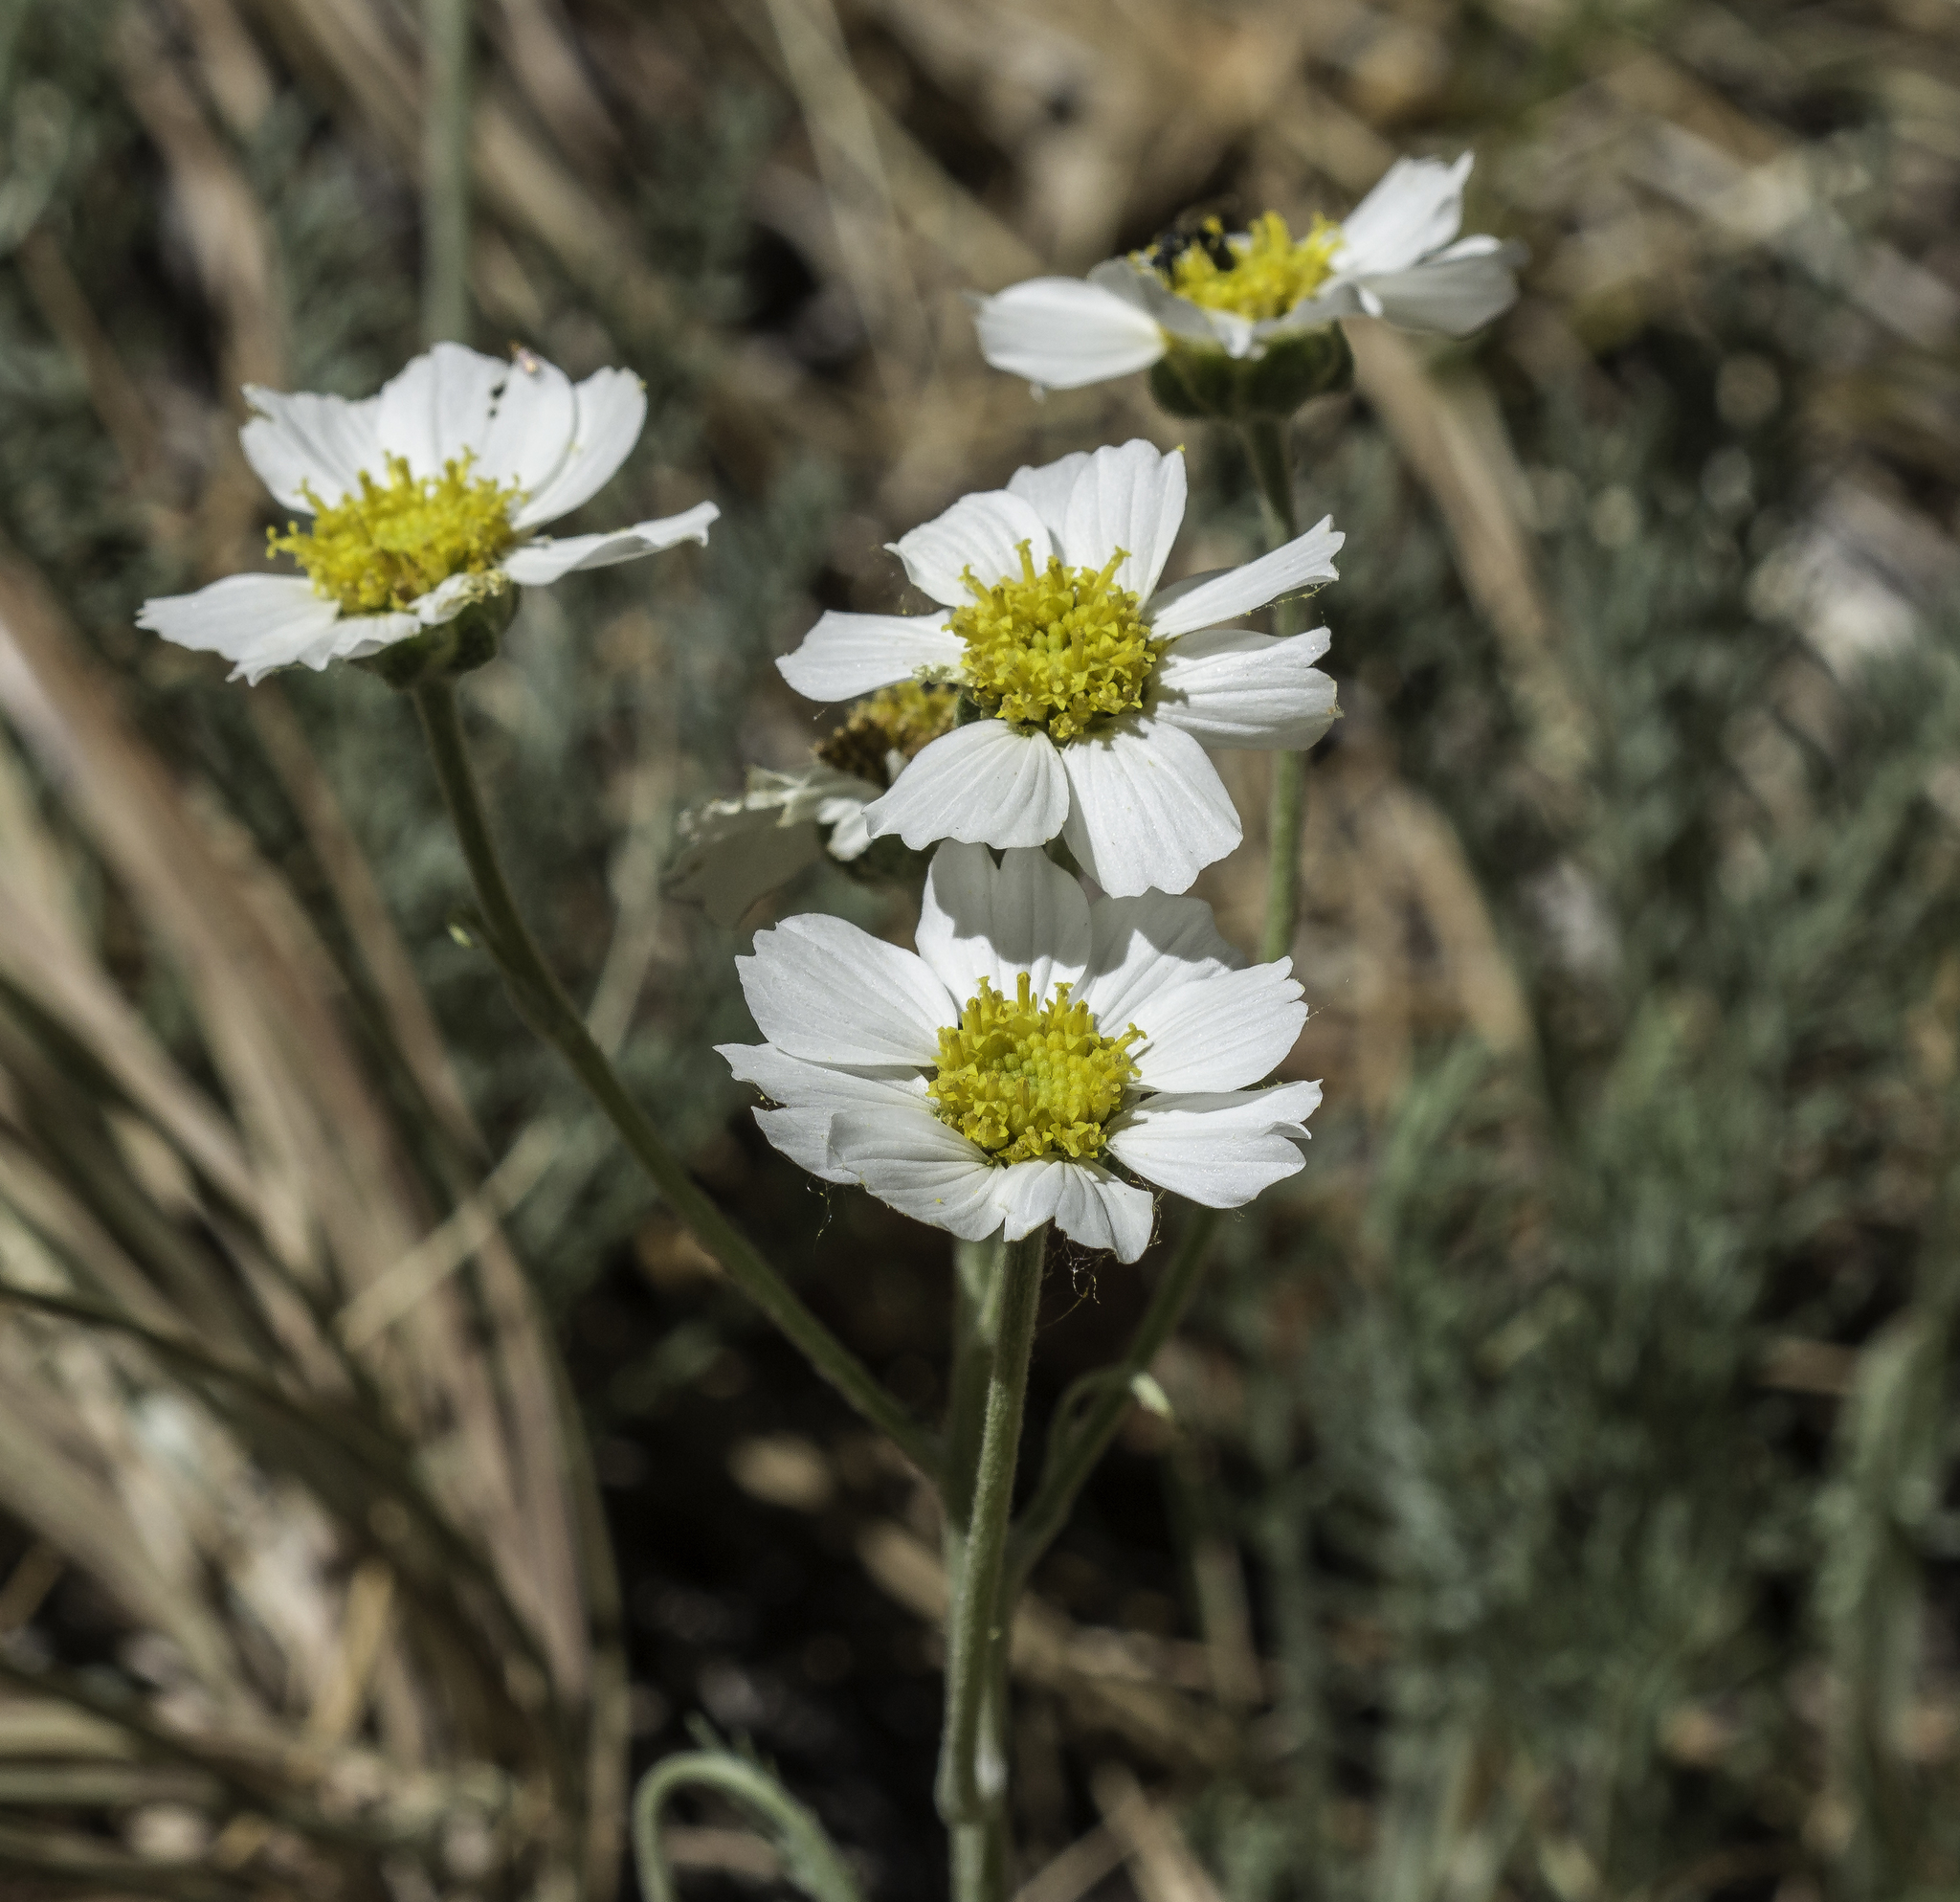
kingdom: Plantae
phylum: Tracheophyta
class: Magnoliopsida
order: Asterales
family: Asteraceae
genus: Hymenopappus
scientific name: Hymenopappus newberryi
